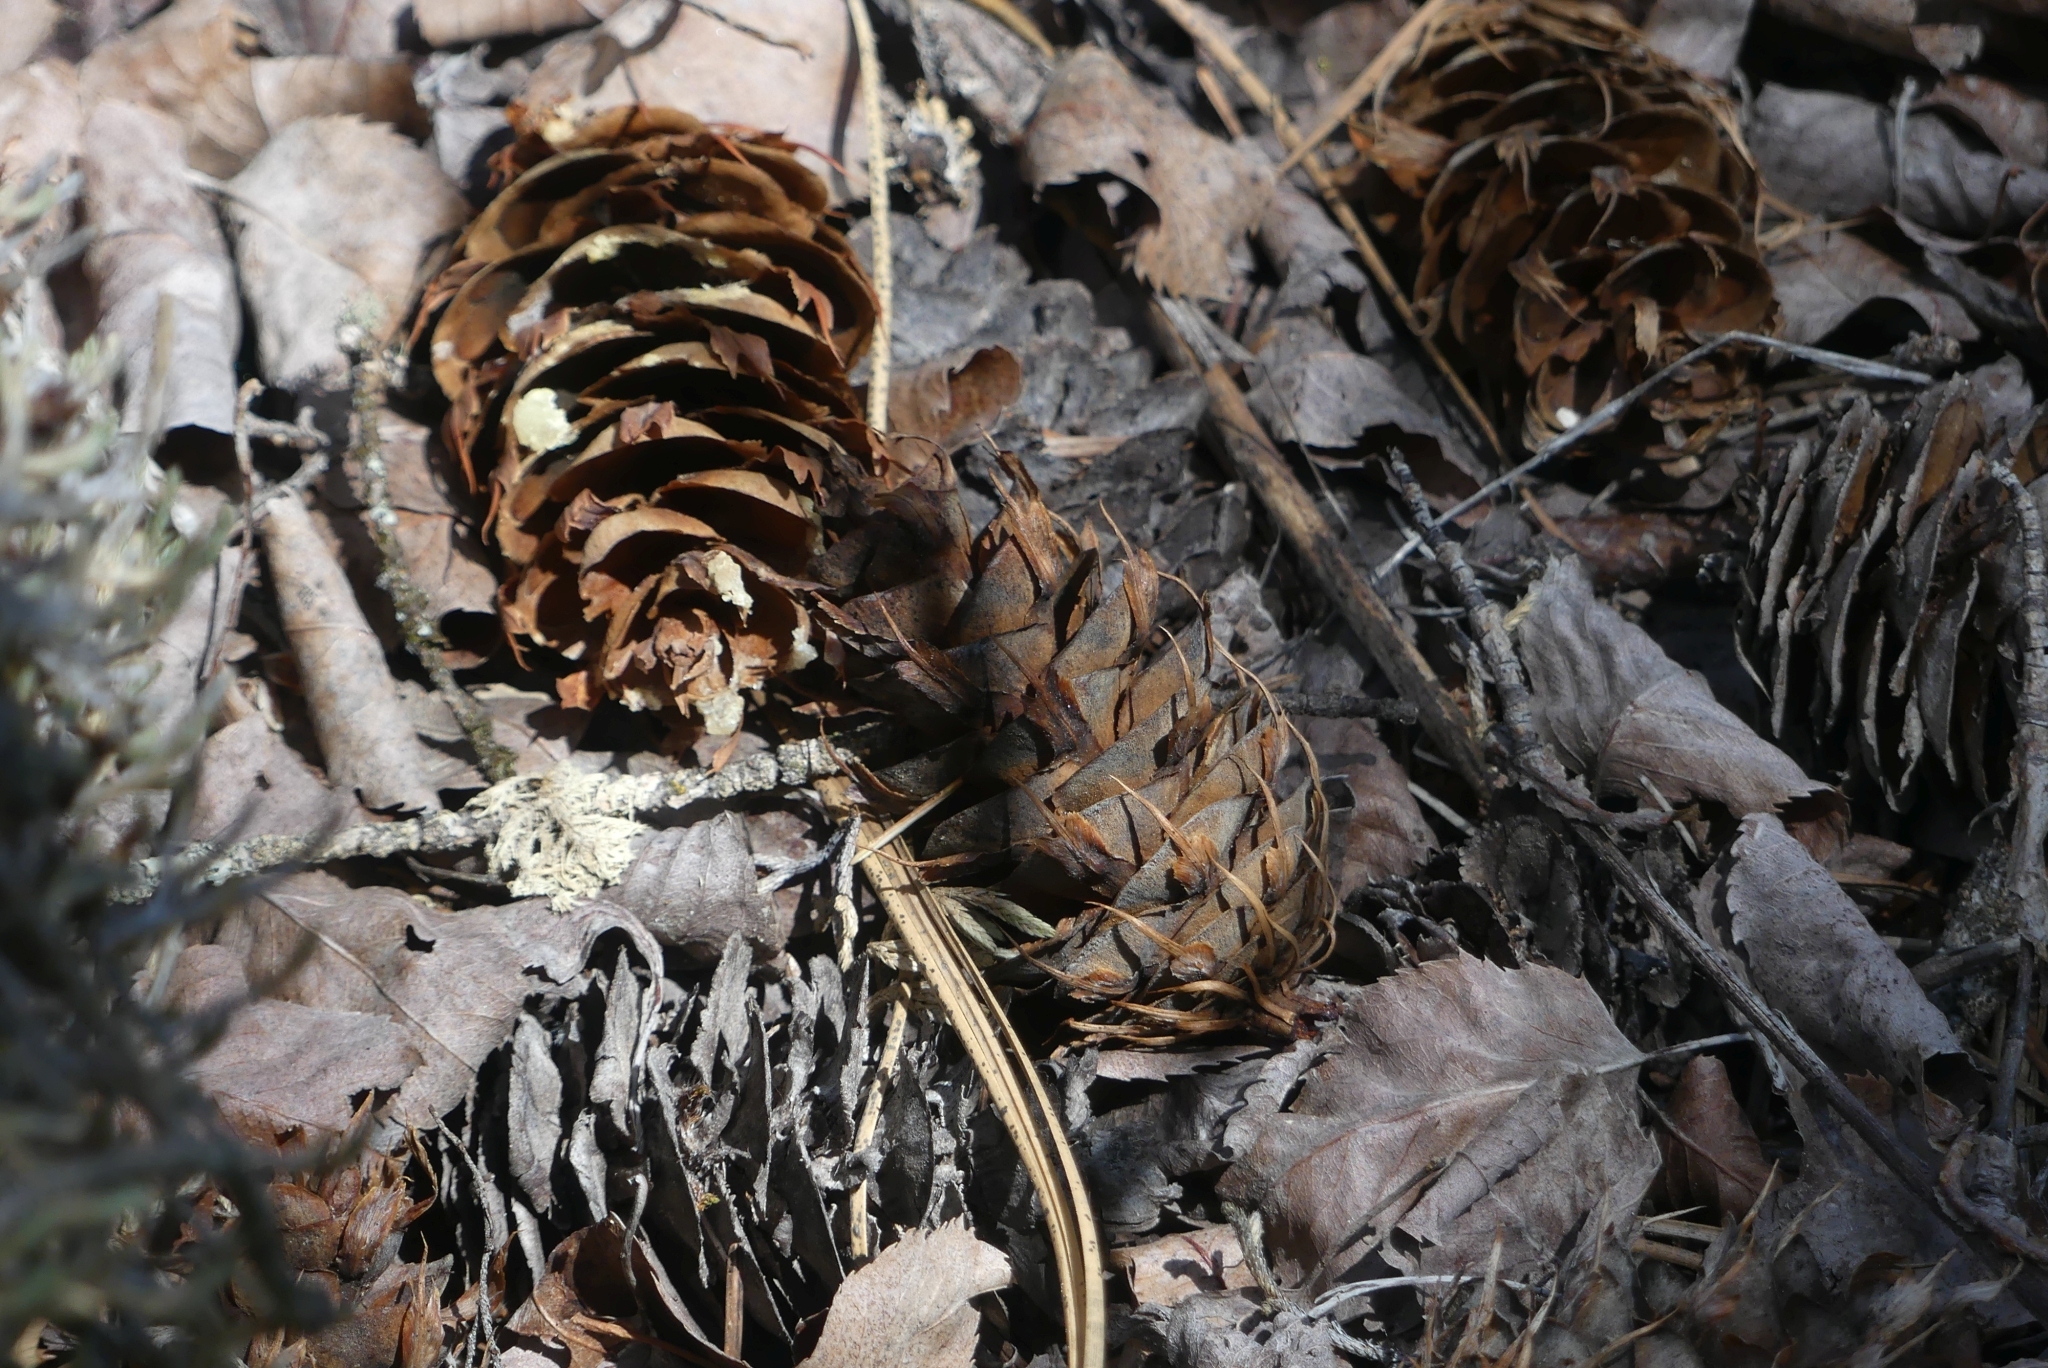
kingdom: Plantae
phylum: Tracheophyta
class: Pinopsida
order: Pinales
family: Pinaceae
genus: Pseudotsuga
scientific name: Pseudotsuga menziesii
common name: Douglas fir
